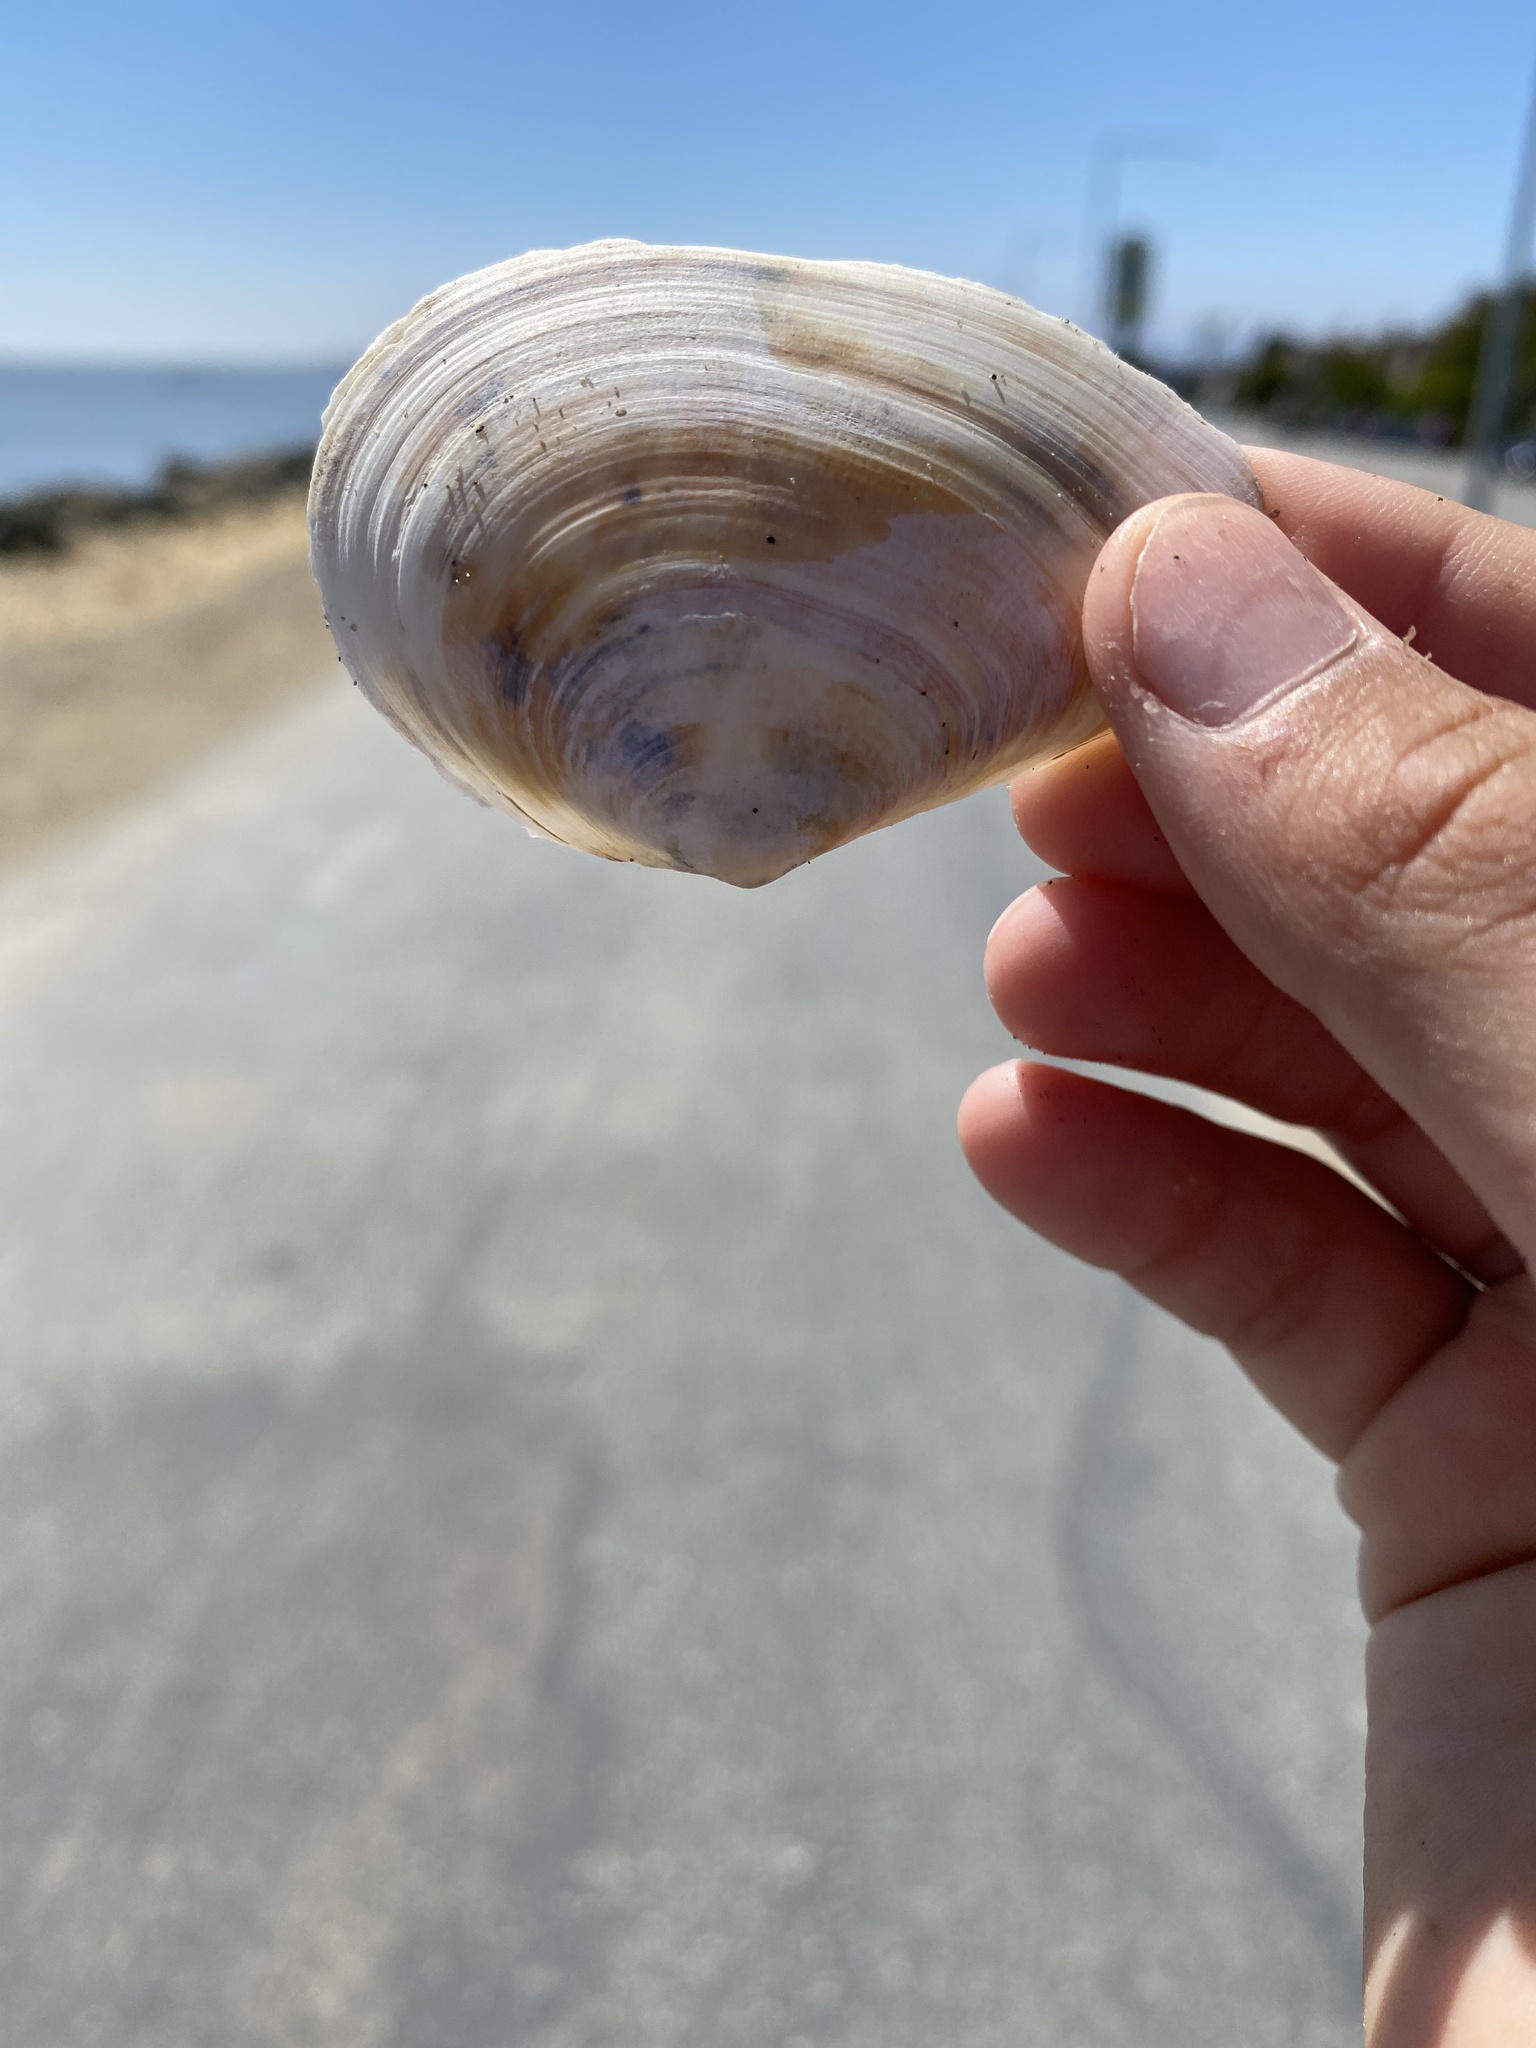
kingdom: Animalia
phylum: Mollusca
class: Bivalvia
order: Cardiida
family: Tellinidae
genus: Macoma
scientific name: Macoma nasuta
